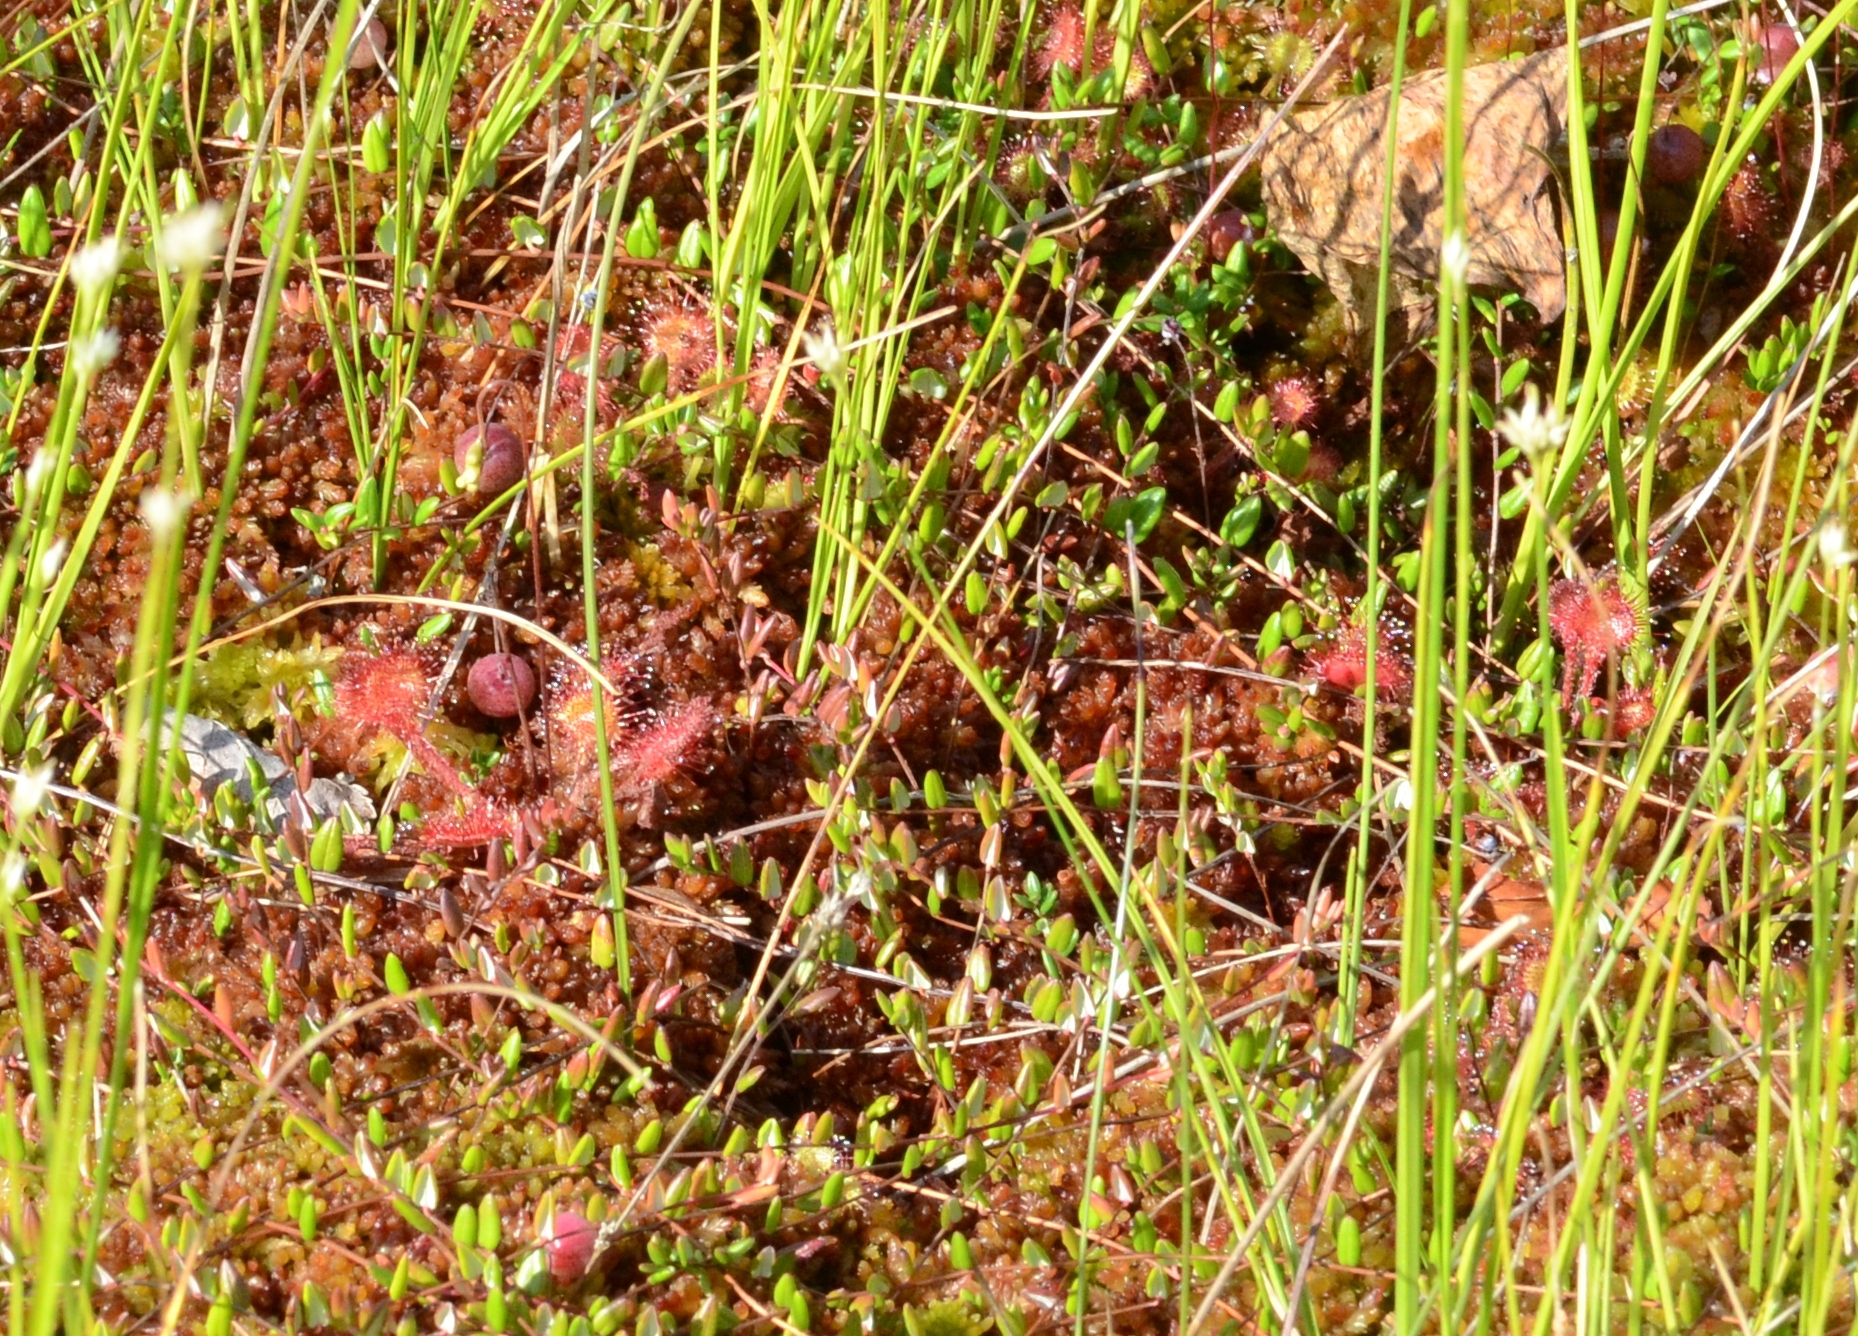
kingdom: Plantae
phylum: Tracheophyta
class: Magnoliopsida
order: Caryophyllales
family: Droseraceae
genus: Drosera
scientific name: Drosera rotundifolia
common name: Round-leaved sundew
